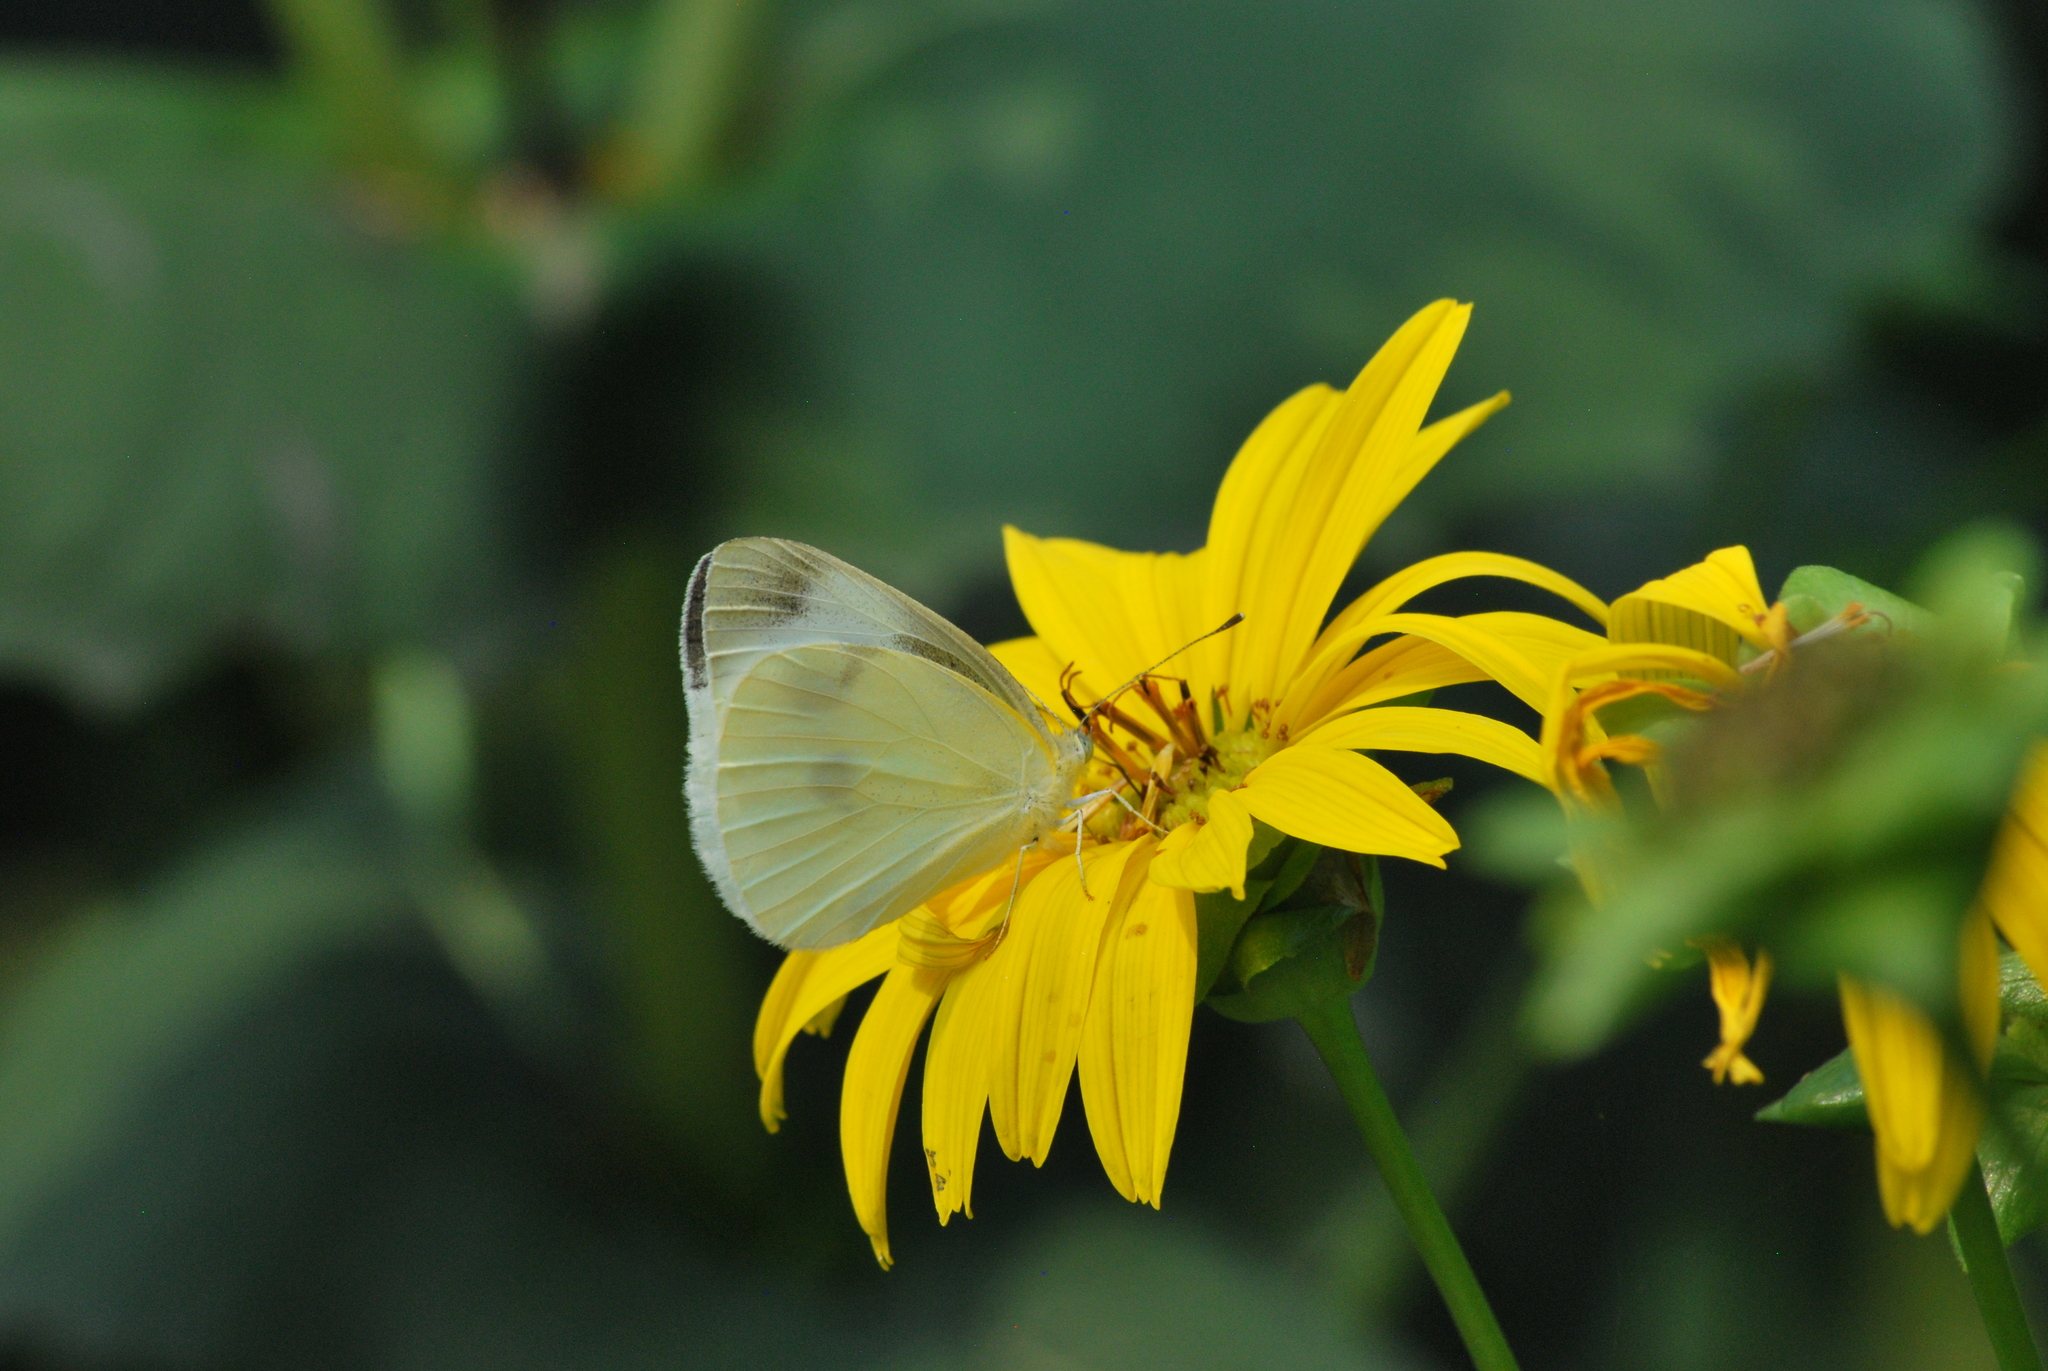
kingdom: Animalia
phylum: Arthropoda
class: Insecta
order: Lepidoptera
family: Pieridae
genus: Pieris
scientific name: Pieris rapae
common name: Small white
